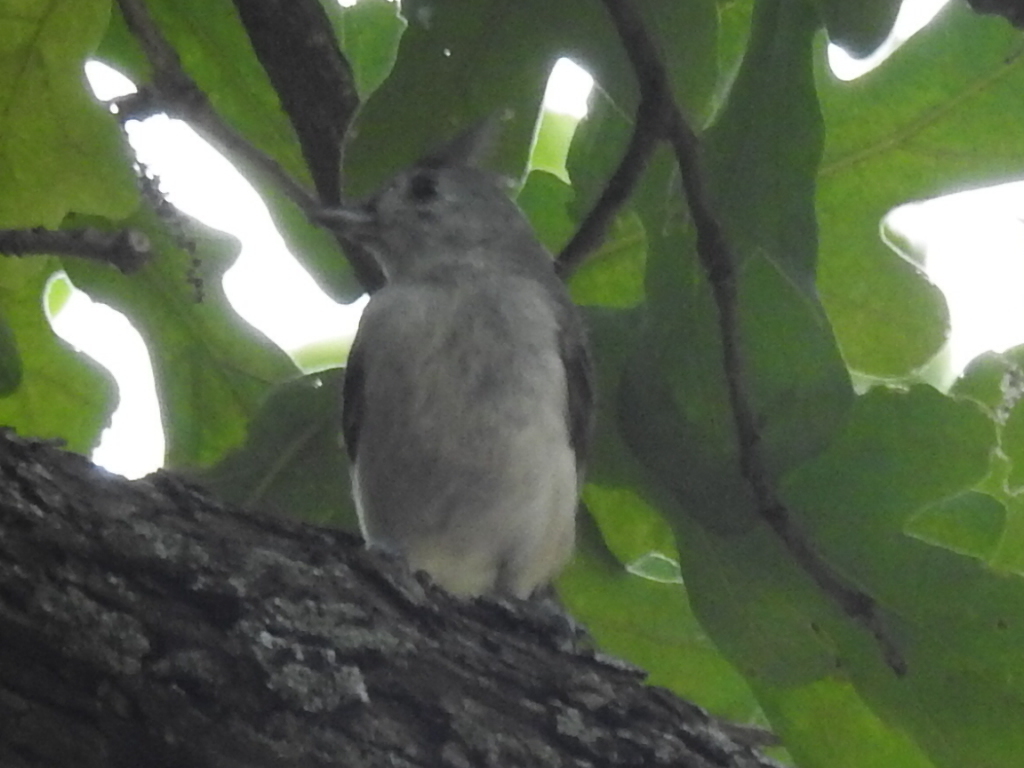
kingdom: Animalia
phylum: Chordata
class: Aves
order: Passeriformes
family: Paridae
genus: Baeolophus
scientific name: Baeolophus bicolor
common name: Tufted titmouse
